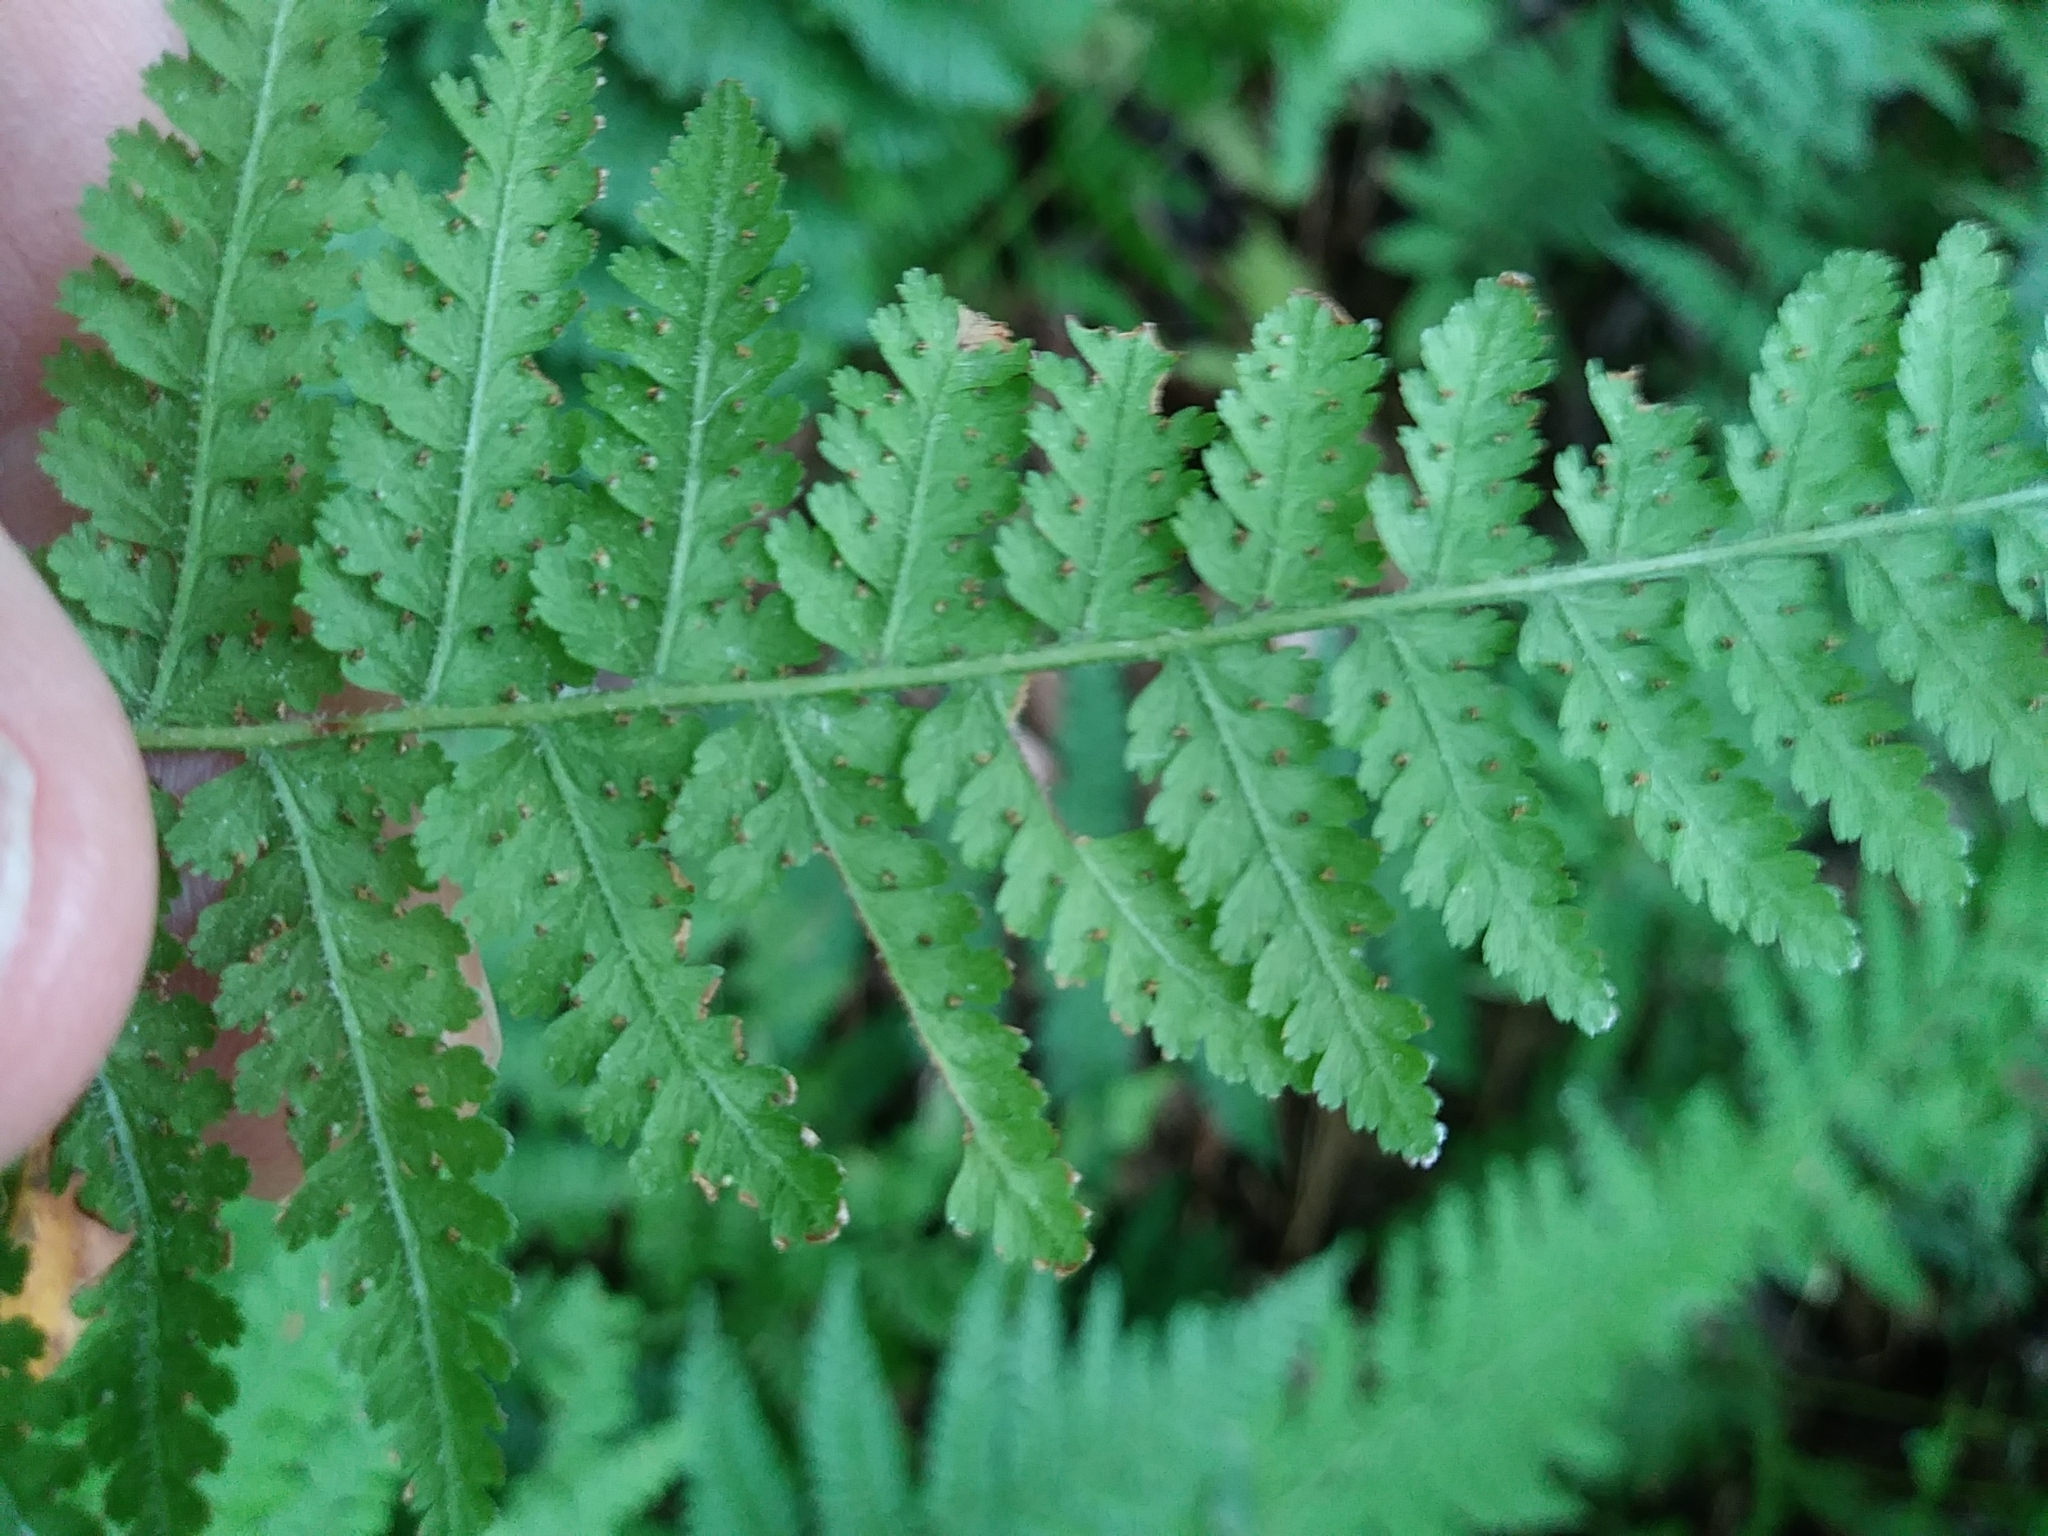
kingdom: Plantae
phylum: Tracheophyta
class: Polypodiopsida
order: Polypodiales
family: Dennstaedtiaceae
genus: Sitobolium
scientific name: Sitobolium punctilobum
